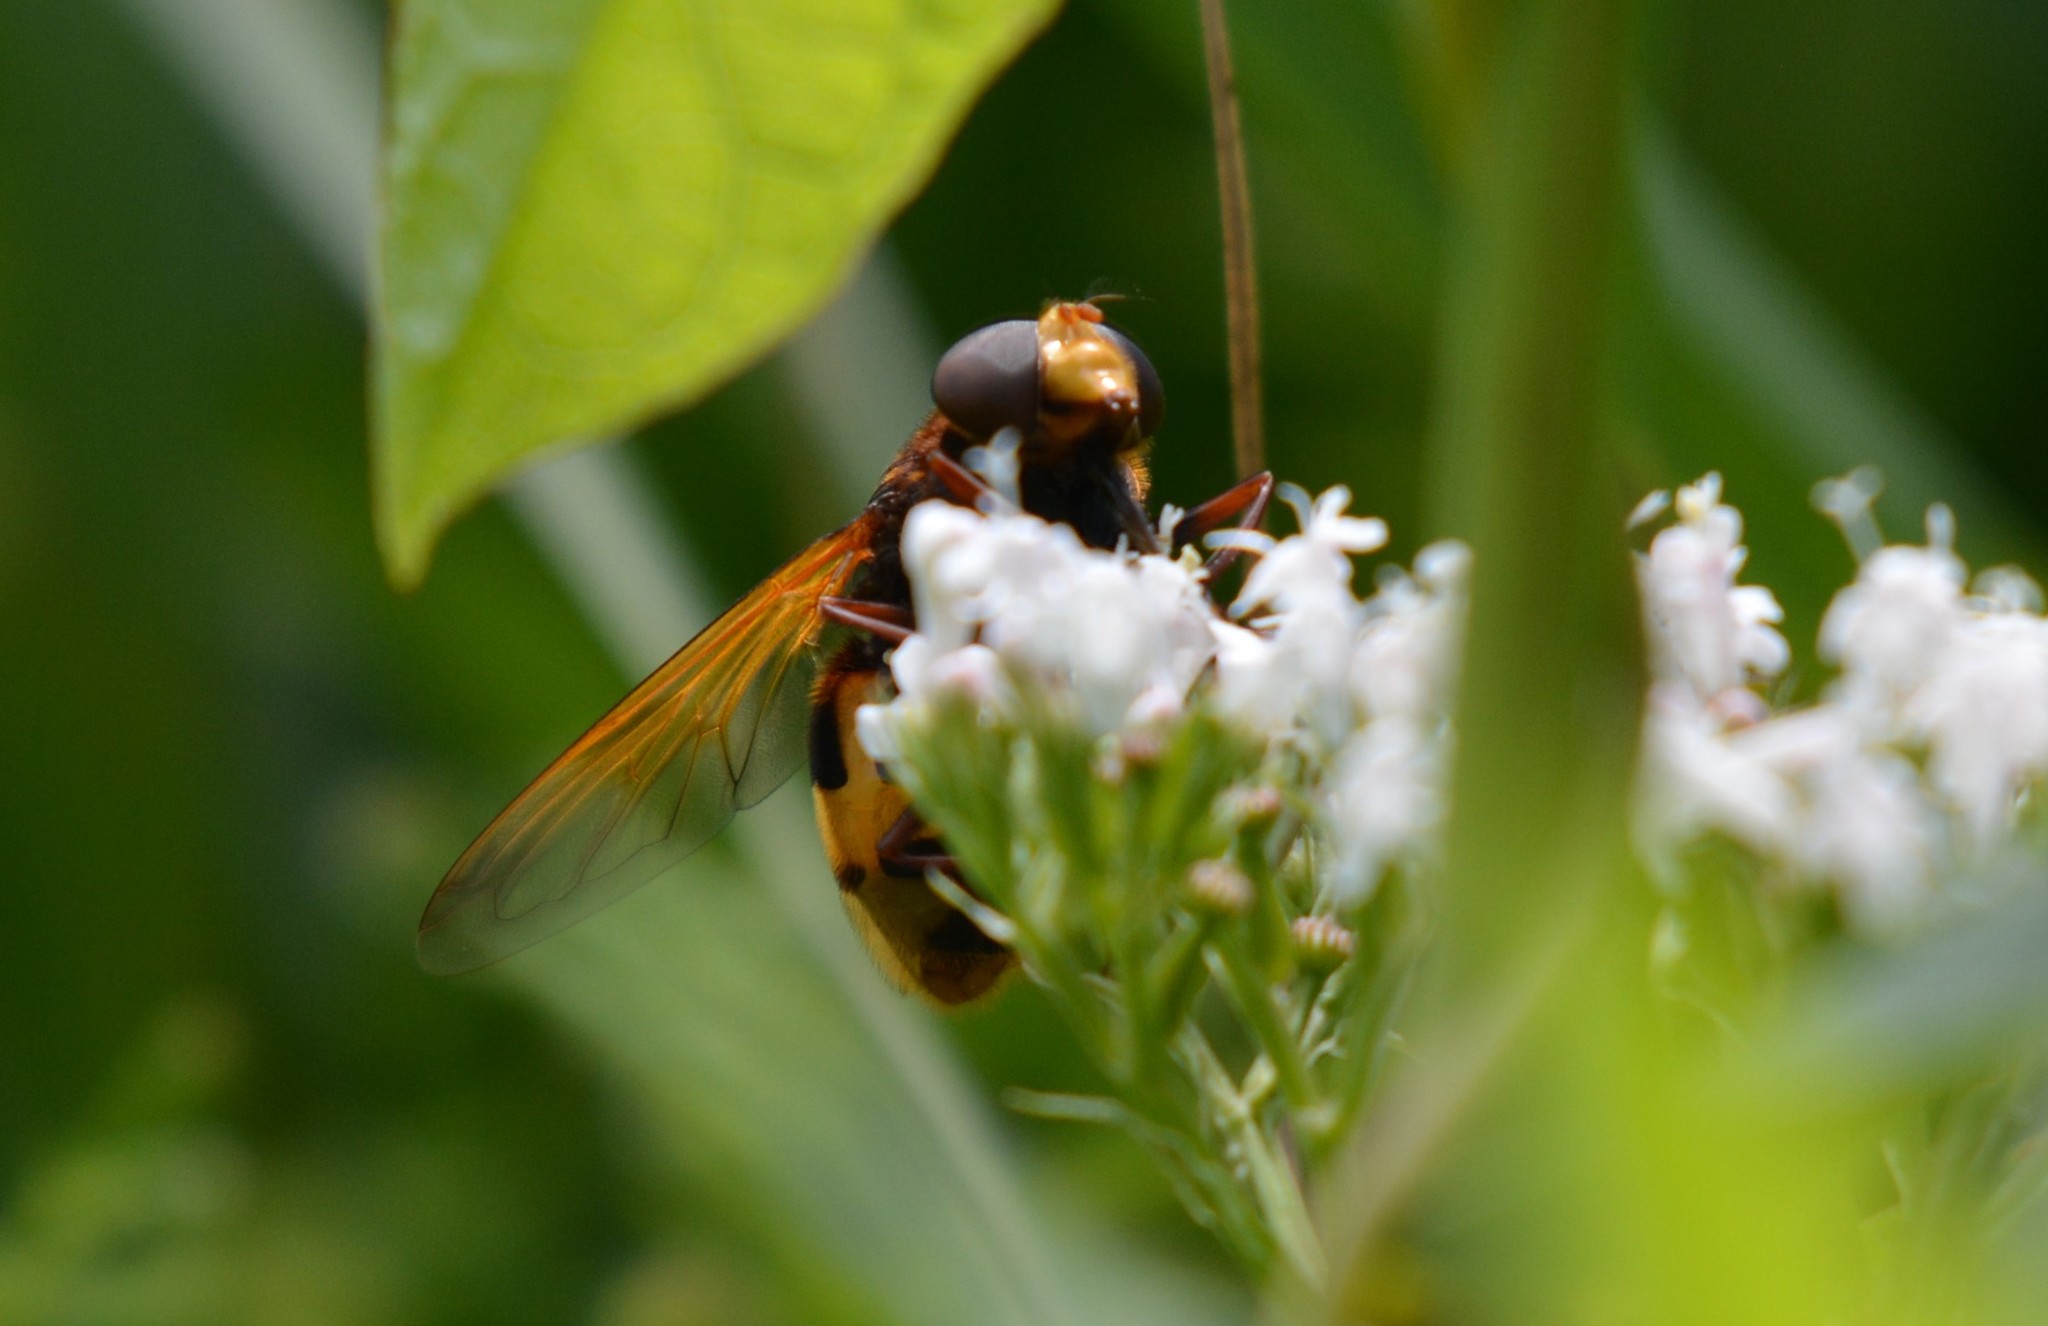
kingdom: Animalia
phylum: Arthropoda
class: Insecta
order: Diptera
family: Syrphidae
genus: Volucella
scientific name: Volucella zonaria
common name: Hornet hoverfly
